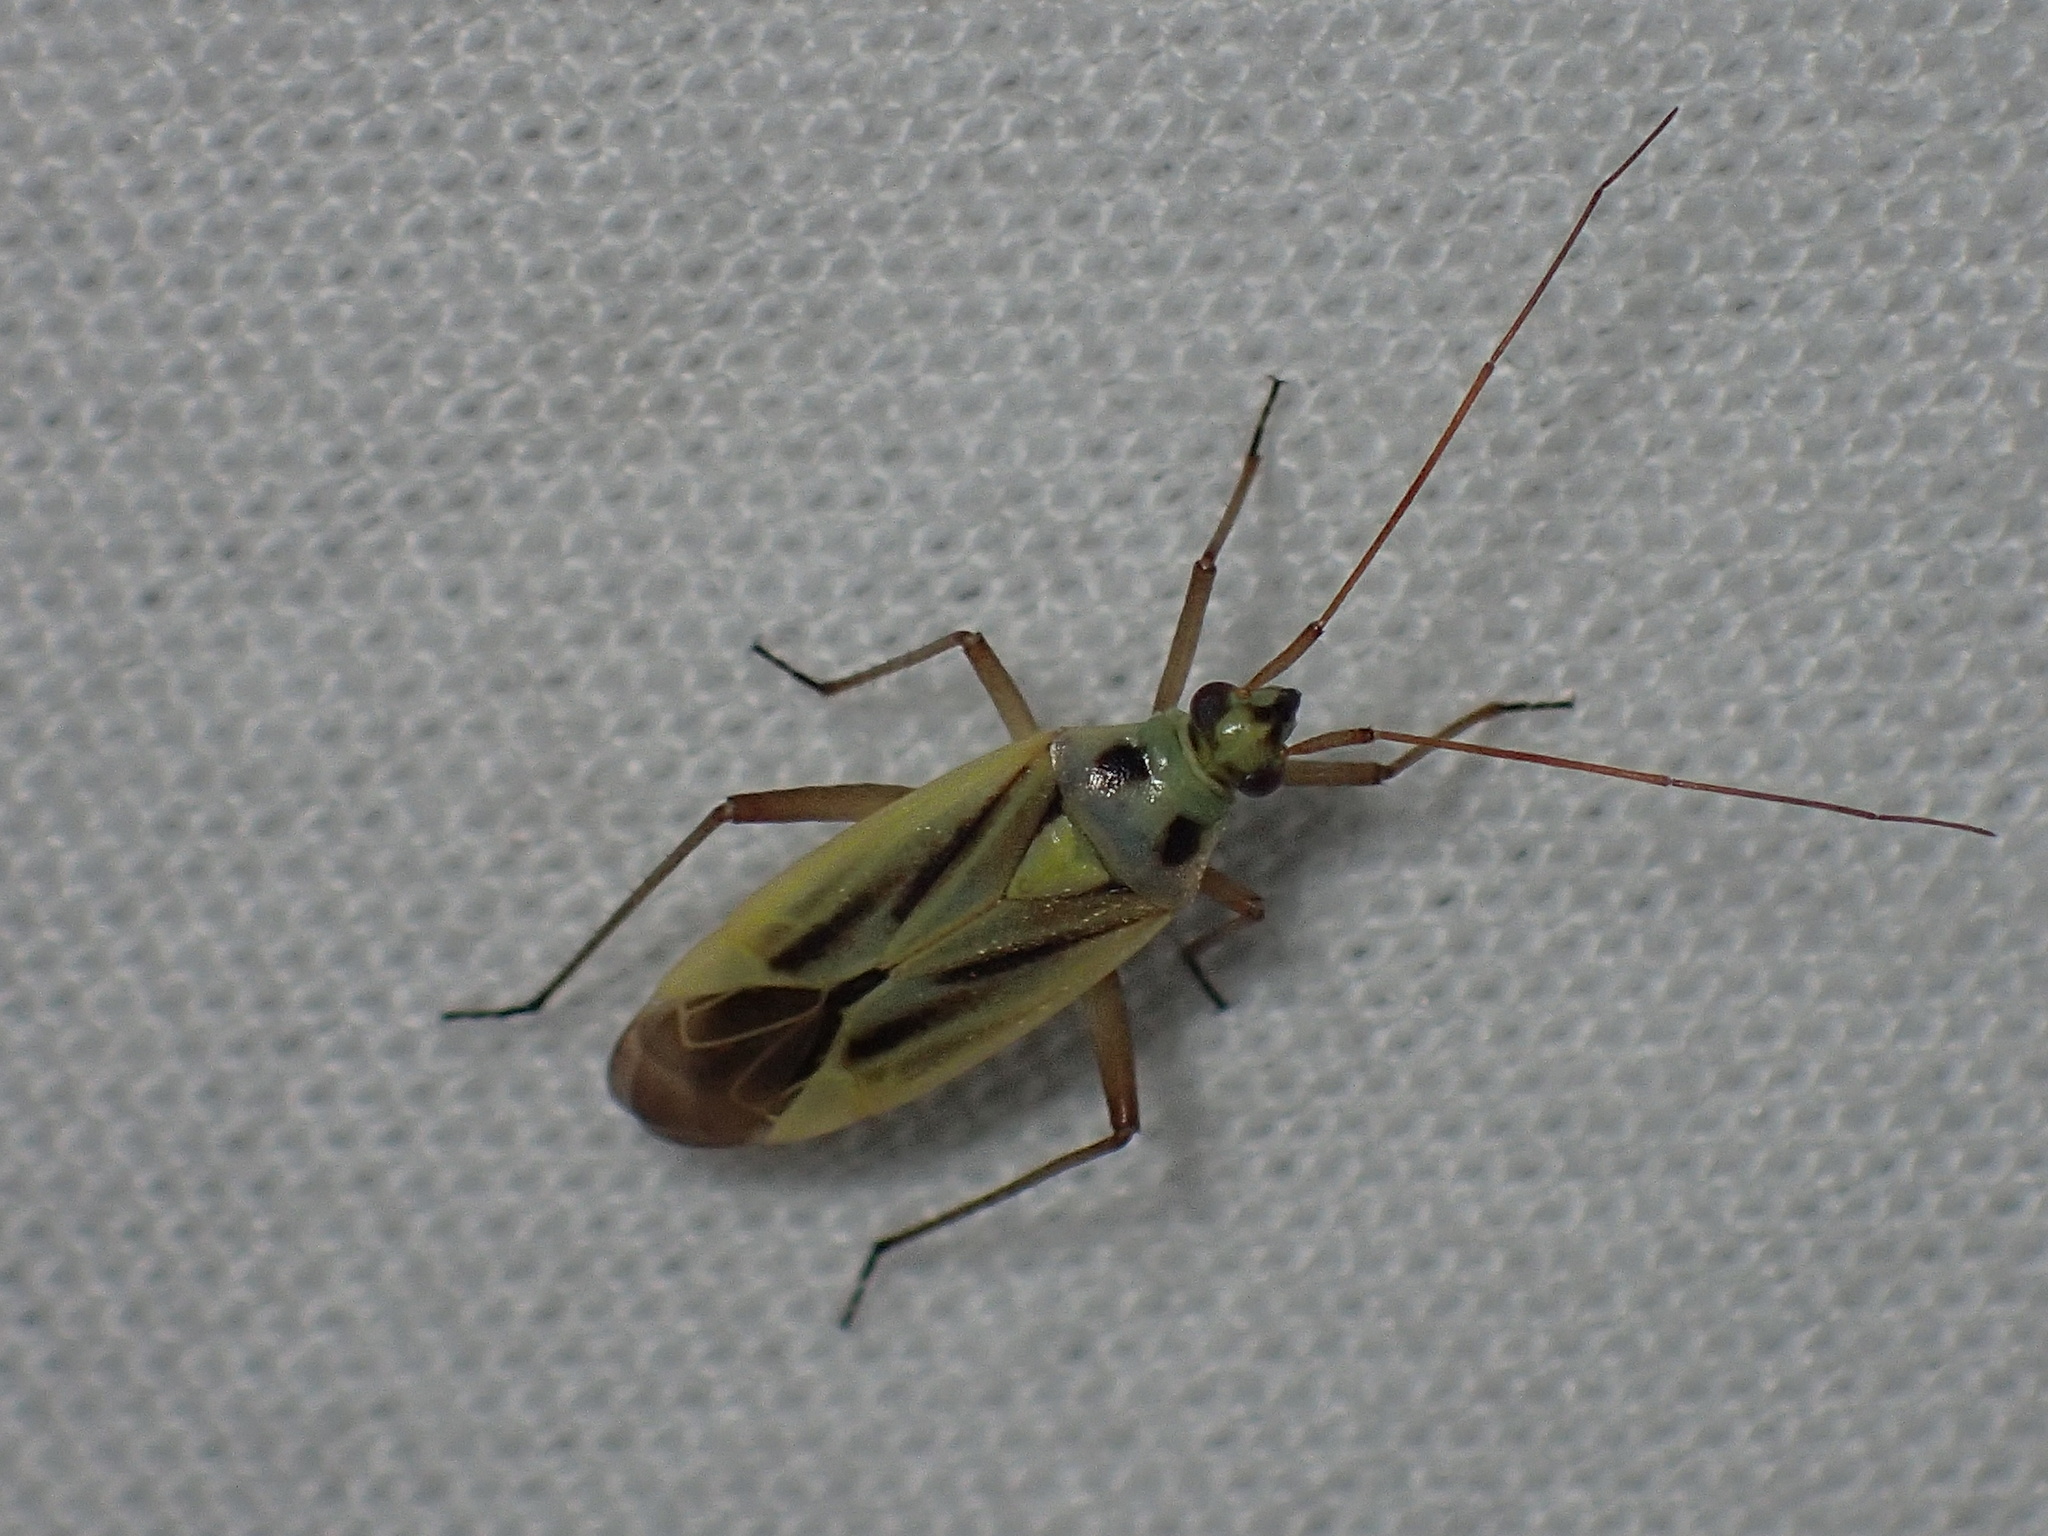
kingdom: Animalia
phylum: Arthropoda
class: Insecta
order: Hemiptera
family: Miridae
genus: Stenotus
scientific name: Stenotus binotatus
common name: Plant bug
